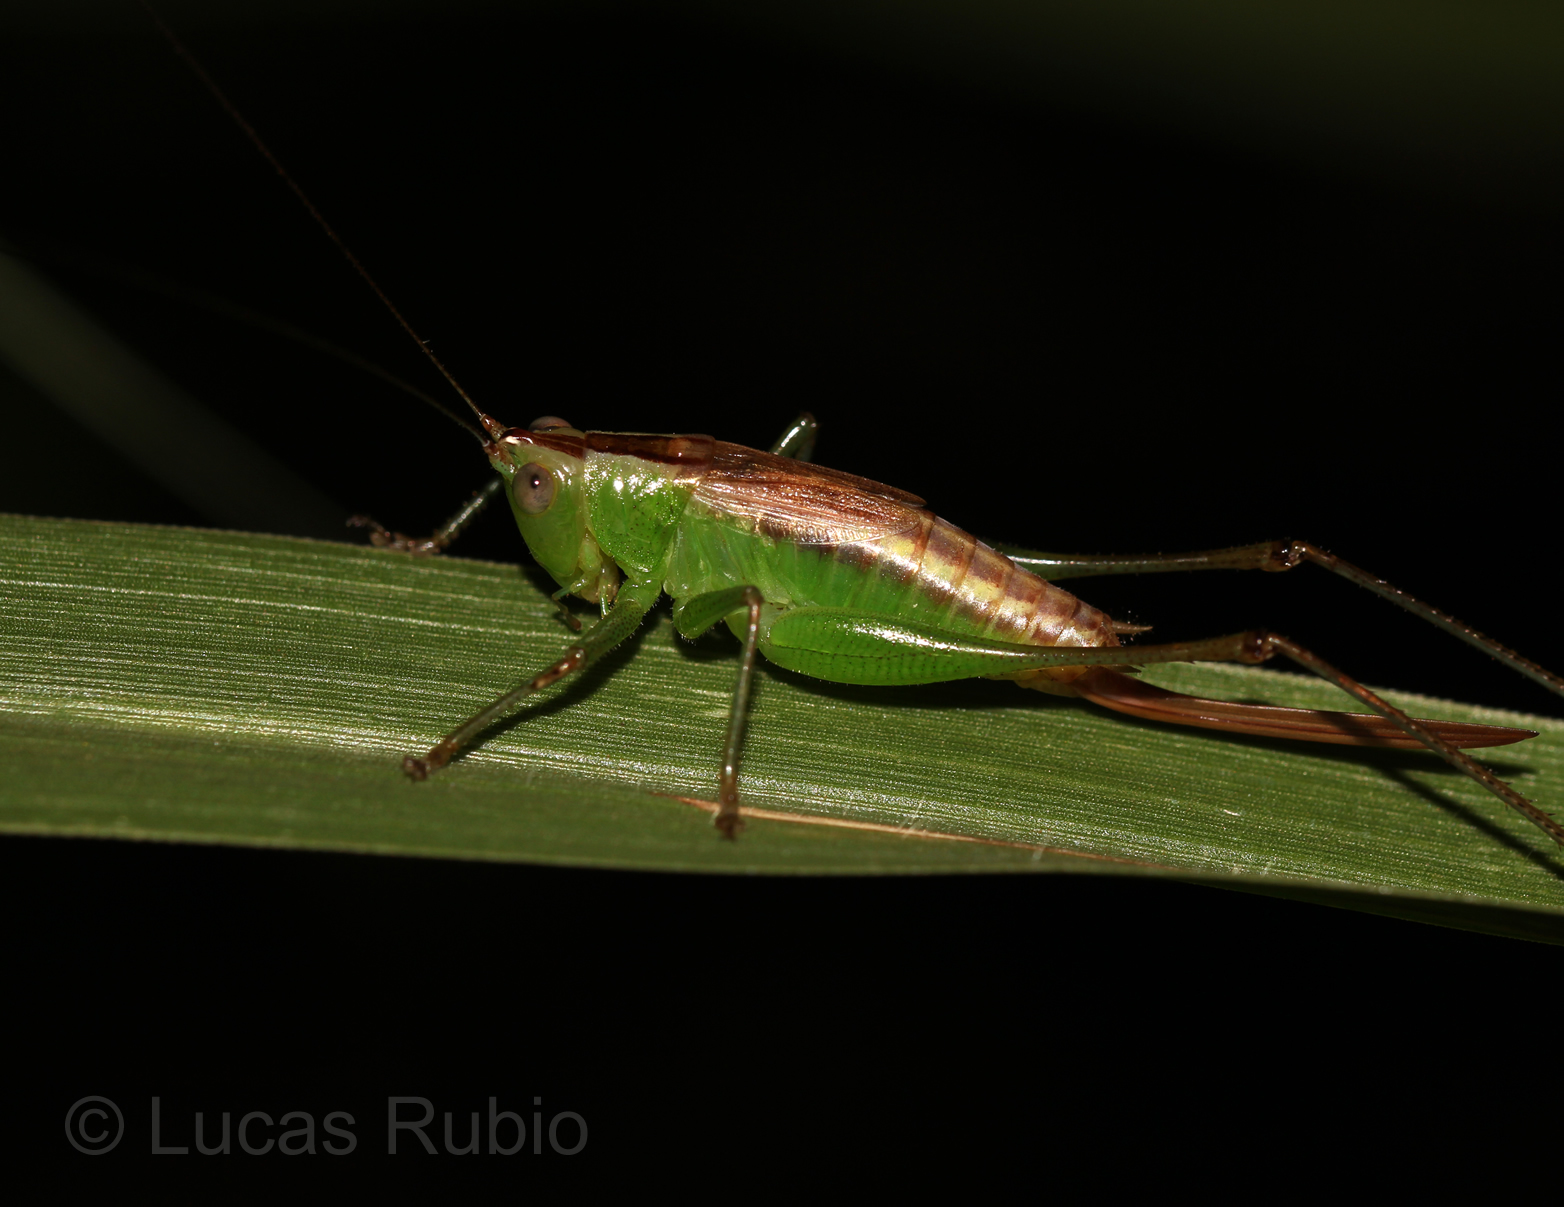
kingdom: Animalia
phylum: Arthropoda
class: Insecta
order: Orthoptera
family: Tettigoniidae
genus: Conocephalus
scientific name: Conocephalus saltator
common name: Katydid
